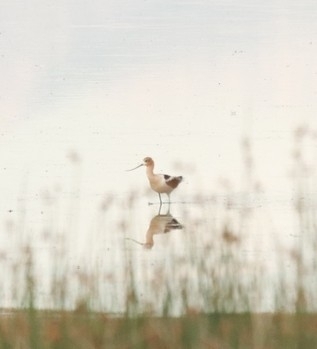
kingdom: Animalia
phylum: Chordata
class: Aves
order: Charadriiformes
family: Recurvirostridae
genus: Recurvirostra
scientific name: Recurvirostra americana
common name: American avocet
